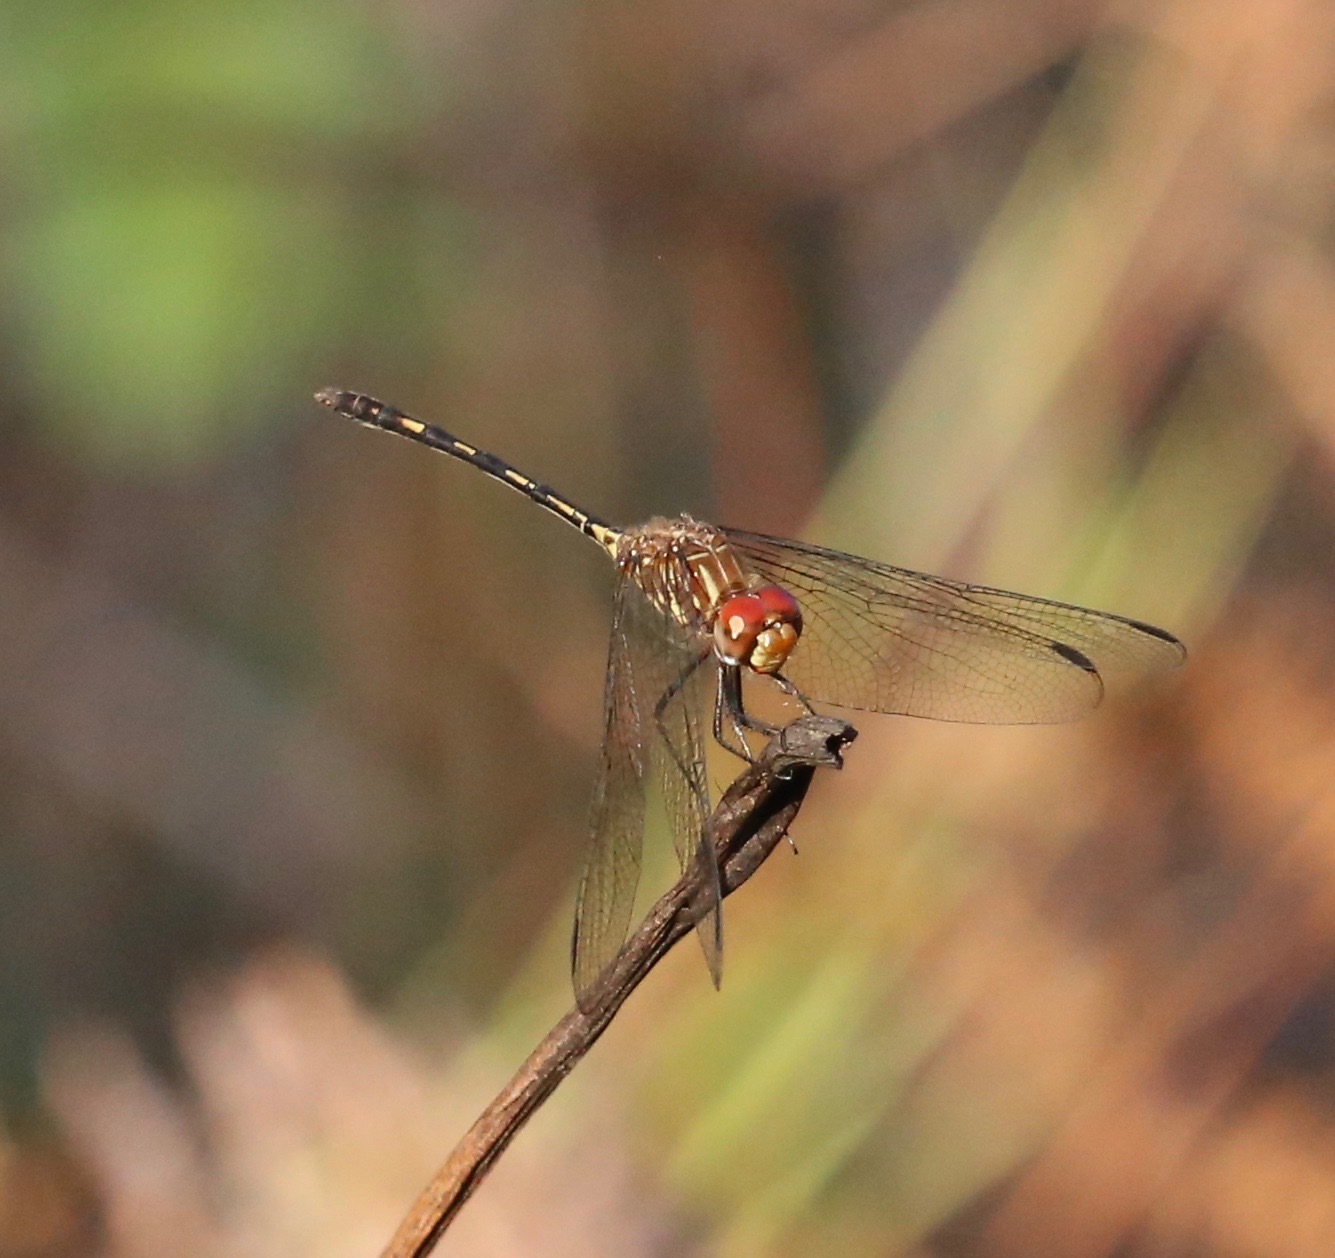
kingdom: Animalia
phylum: Arthropoda
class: Insecta
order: Odonata
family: Libellulidae
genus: Dythemis
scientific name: Dythemis sterilis
